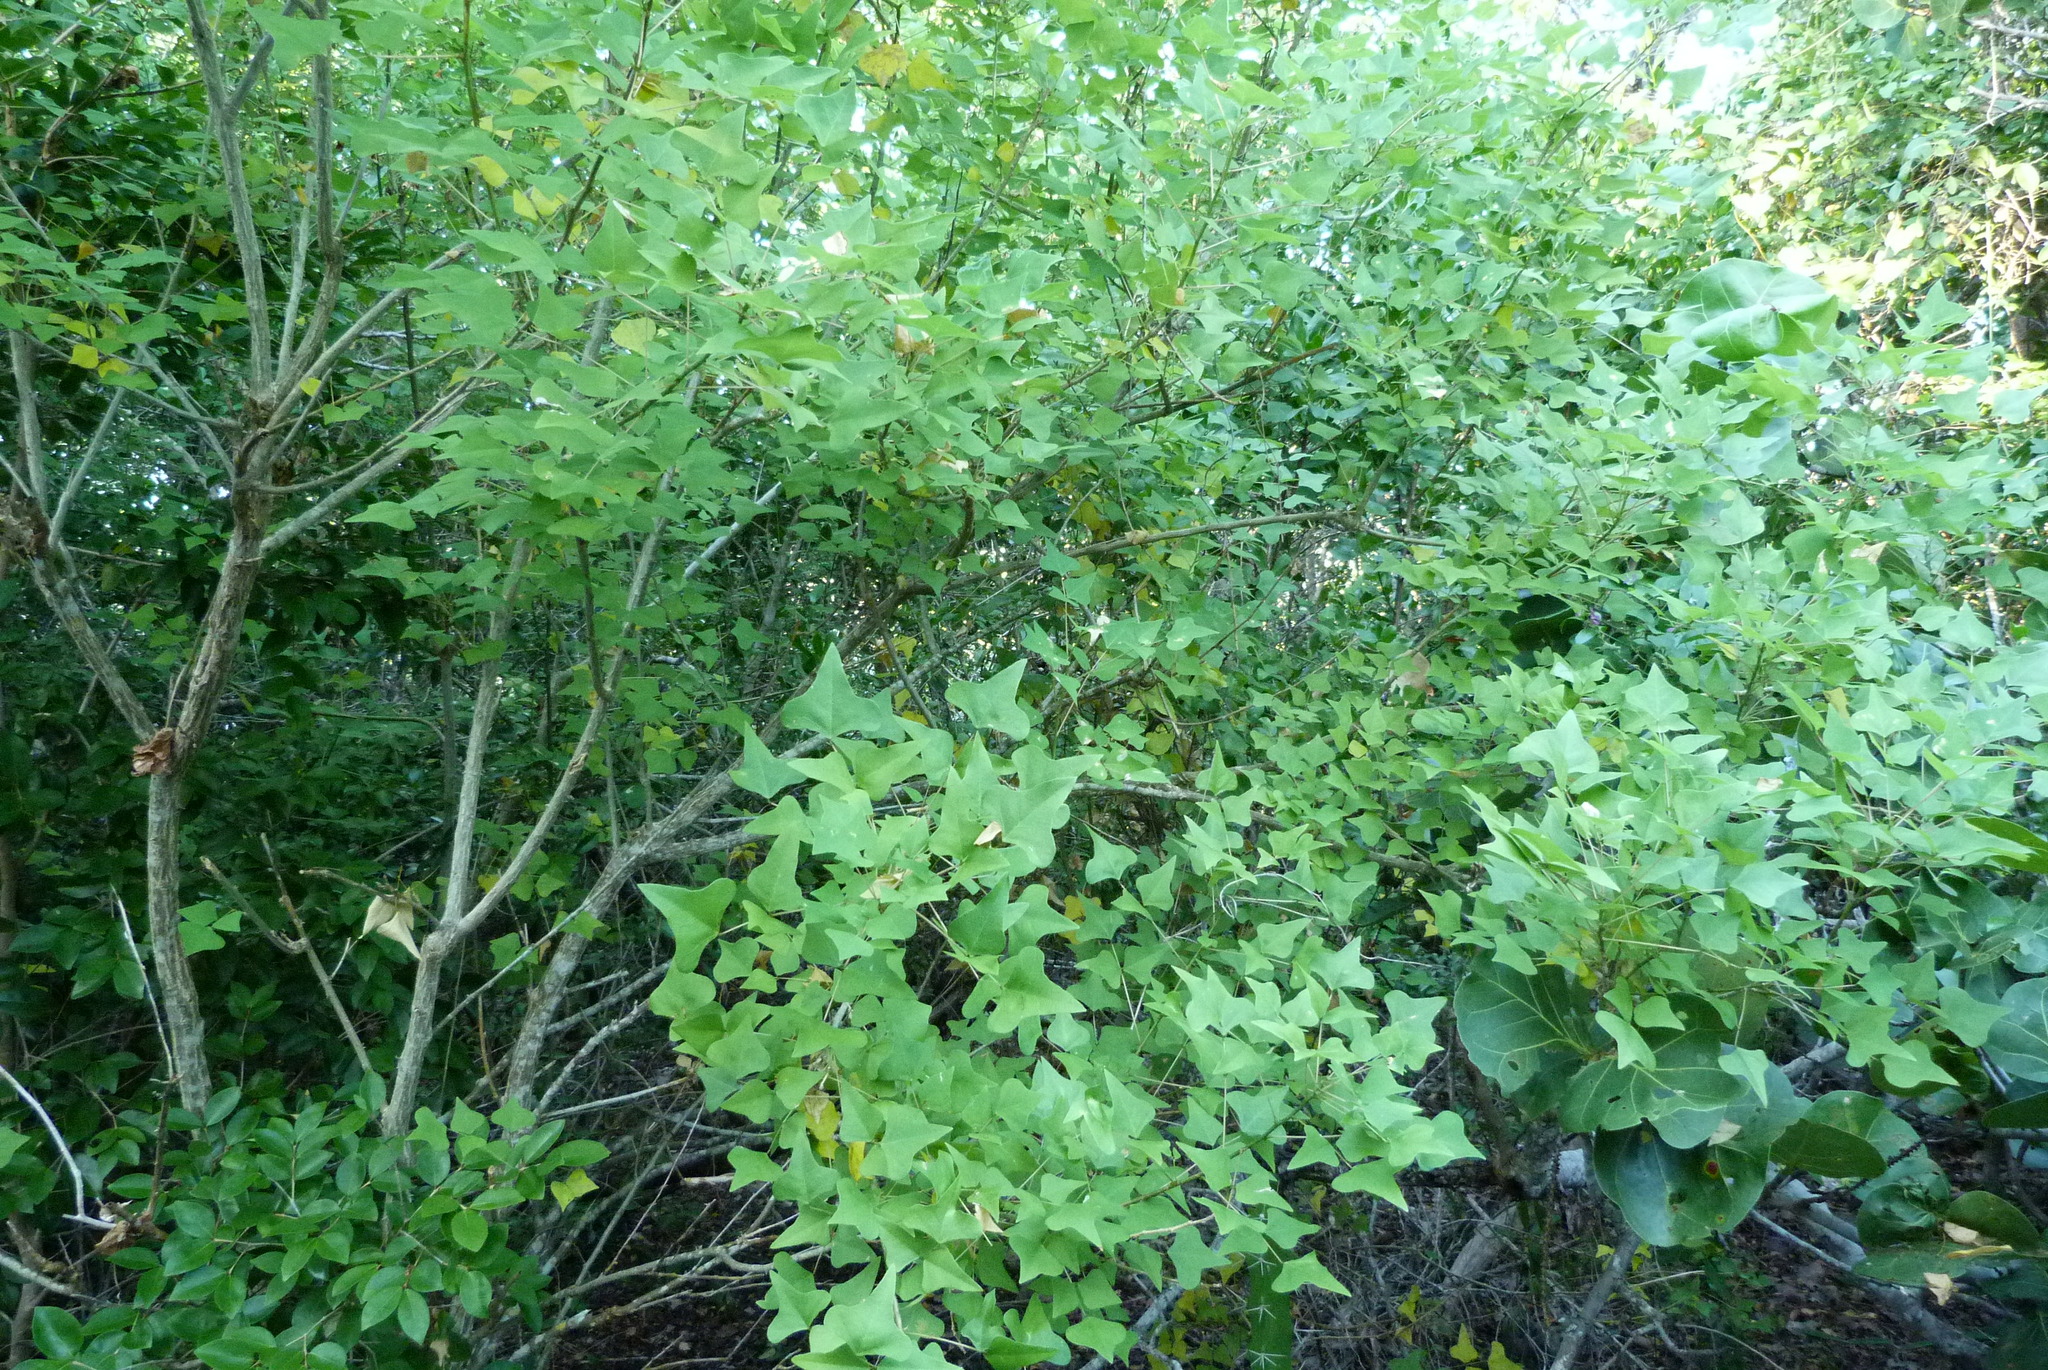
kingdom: Plantae
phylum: Tracheophyta
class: Magnoliopsida
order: Fabales
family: Fabaceae
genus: Erythrina
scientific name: Erythrina herbacea
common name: Coral-bean
